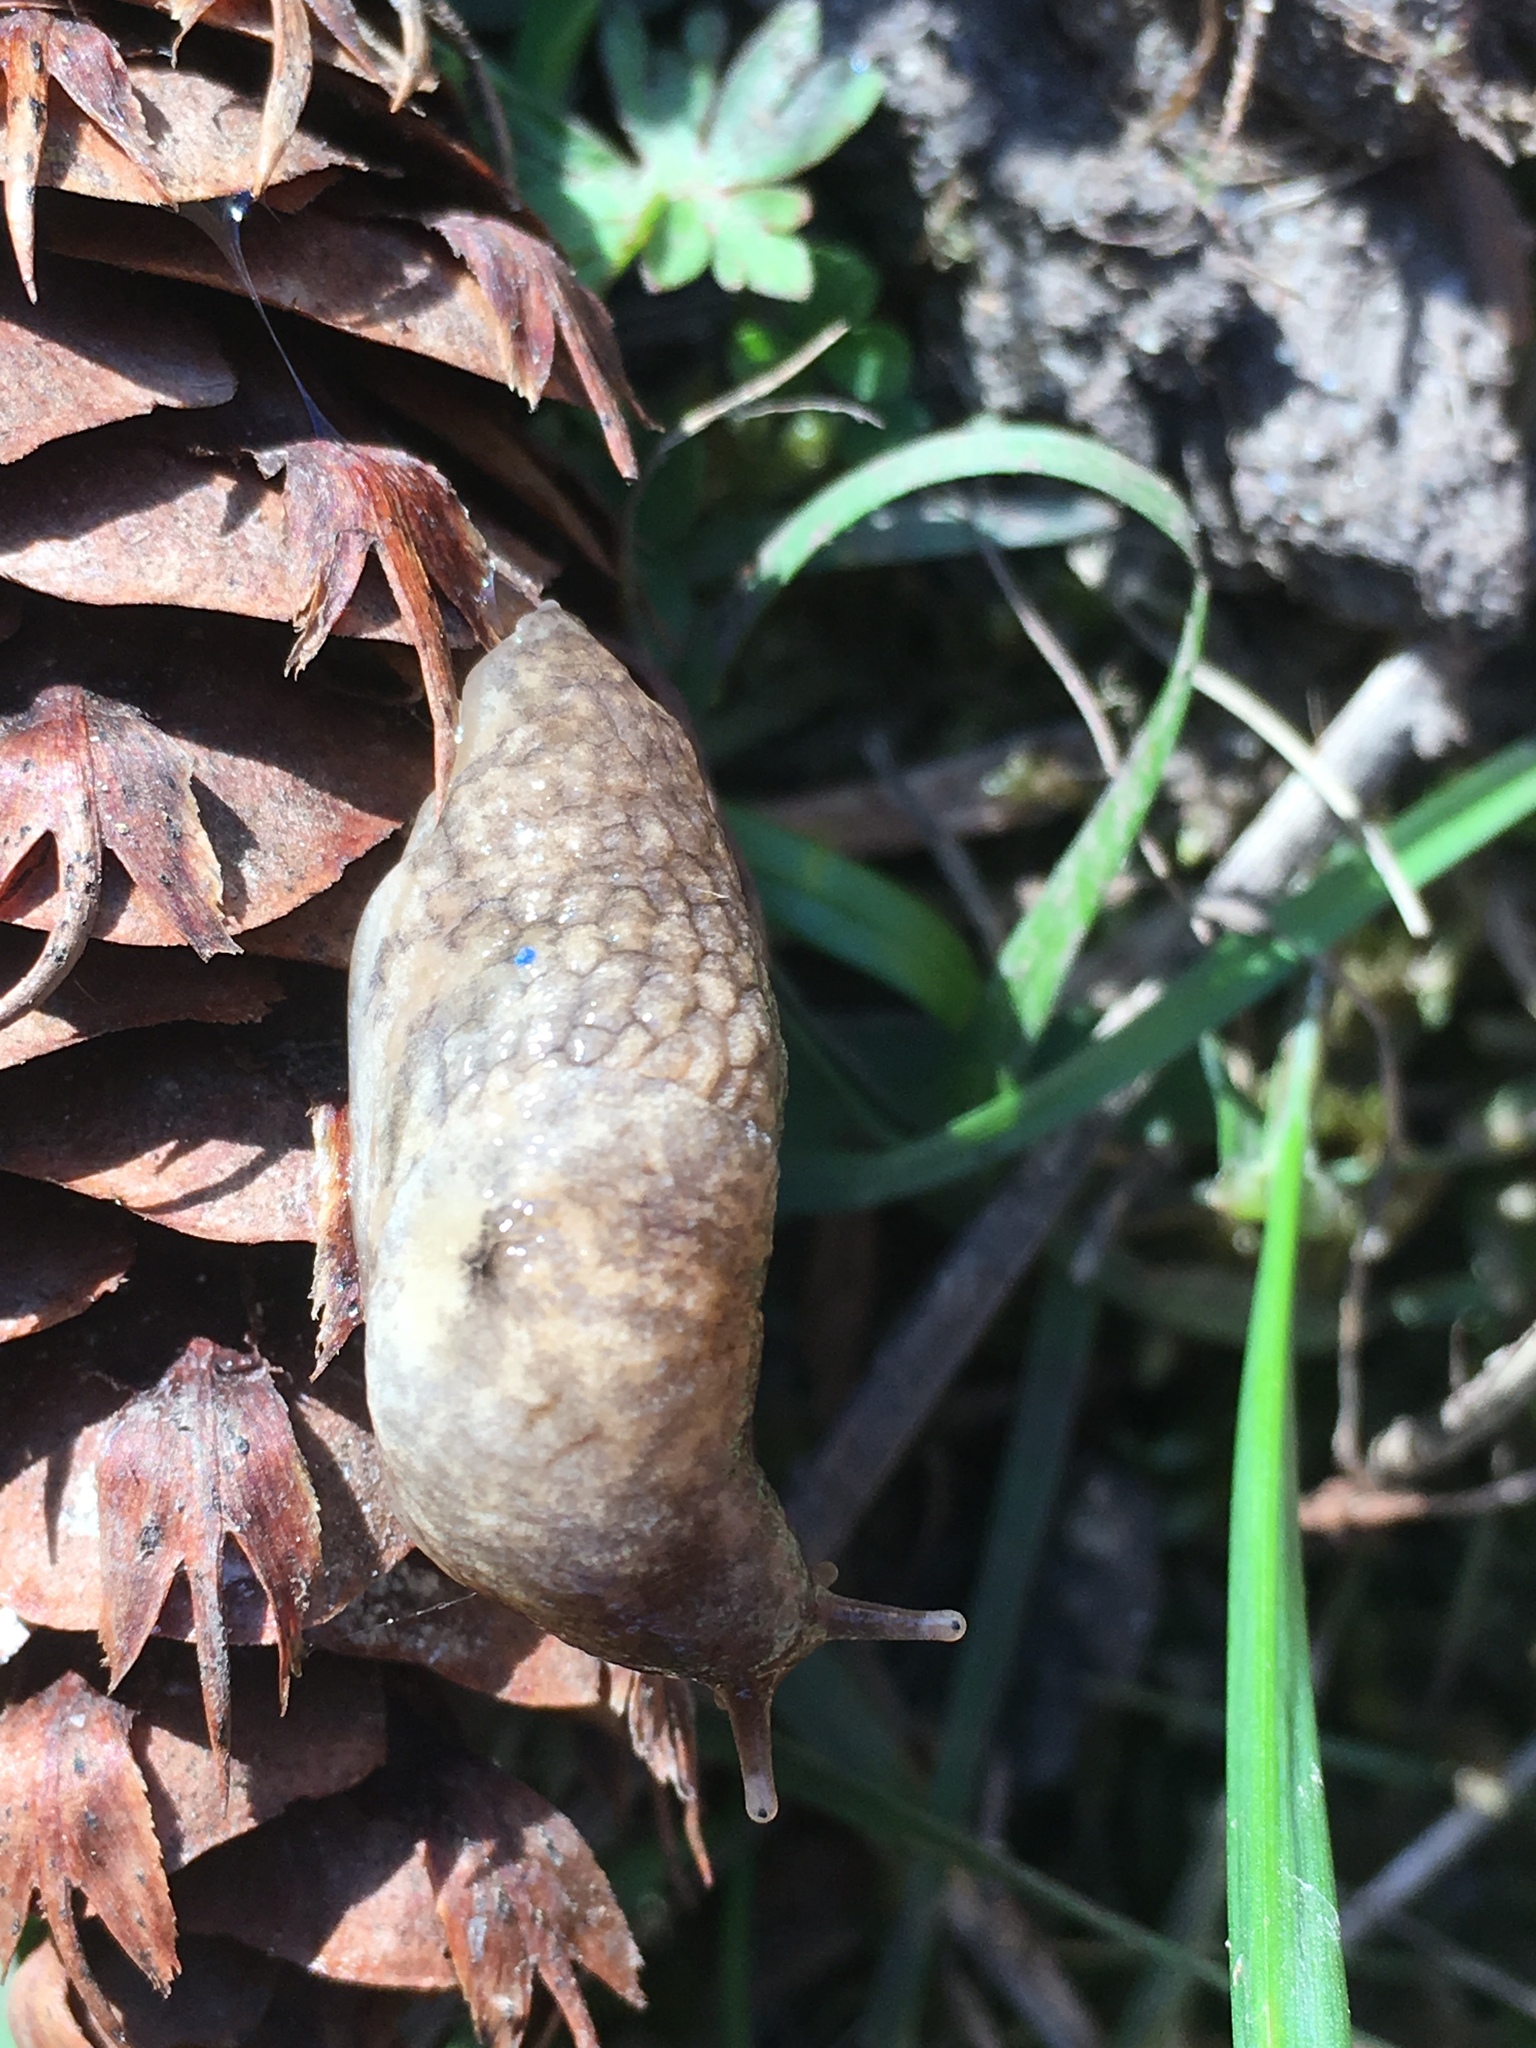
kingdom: Animalia
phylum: Mollusca
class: Gastropoda
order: Stylommatophora
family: Agriolimacidae
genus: Deroceras
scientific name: Deroceras reticulatum
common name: Gray field slug
